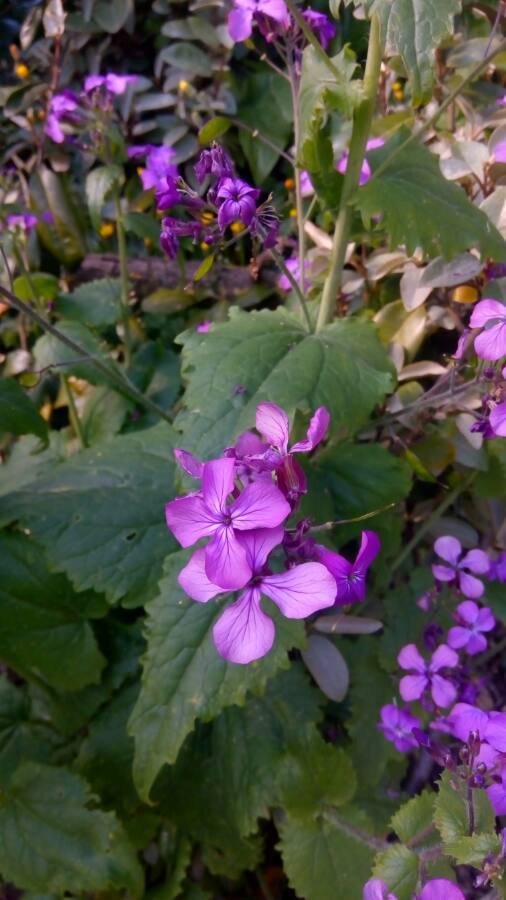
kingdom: Plantae
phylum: Tracheophyta
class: Magnoliopsida
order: Brassicales
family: Brassicaceae
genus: Lunaria
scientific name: Lunaria annua
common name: Honesty
